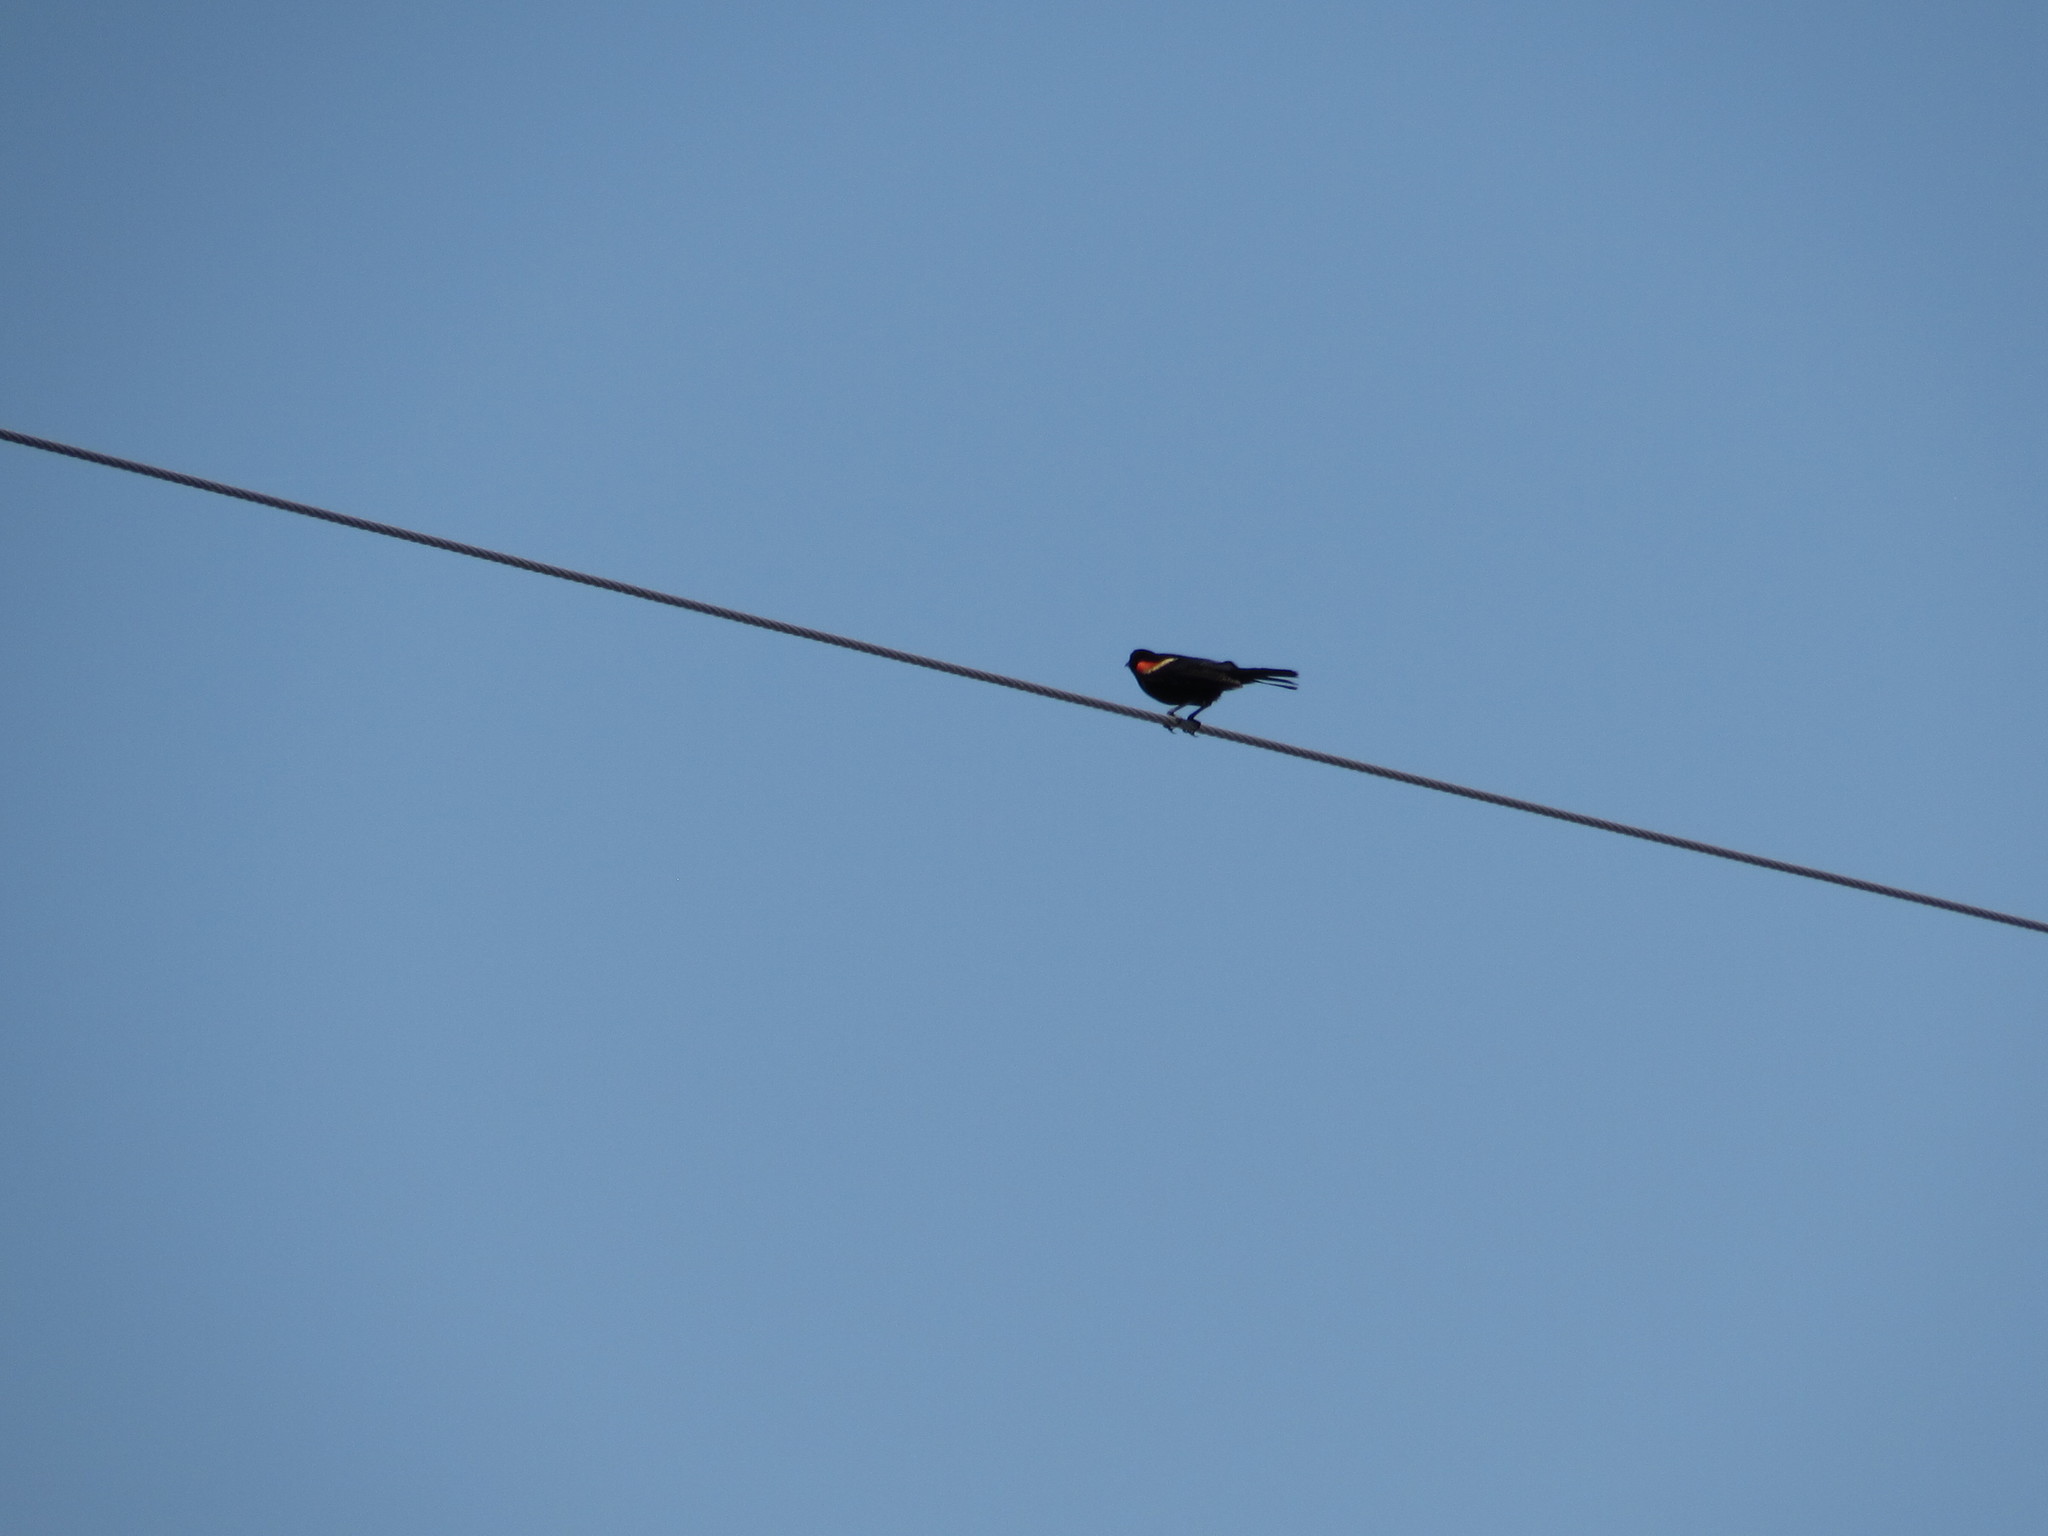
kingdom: Animalia
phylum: Chordata
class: Aves
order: Passeriformes
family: Icteridae
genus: Agelaius
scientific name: Agelaius phoeniceus
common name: Red-winged blackbird
